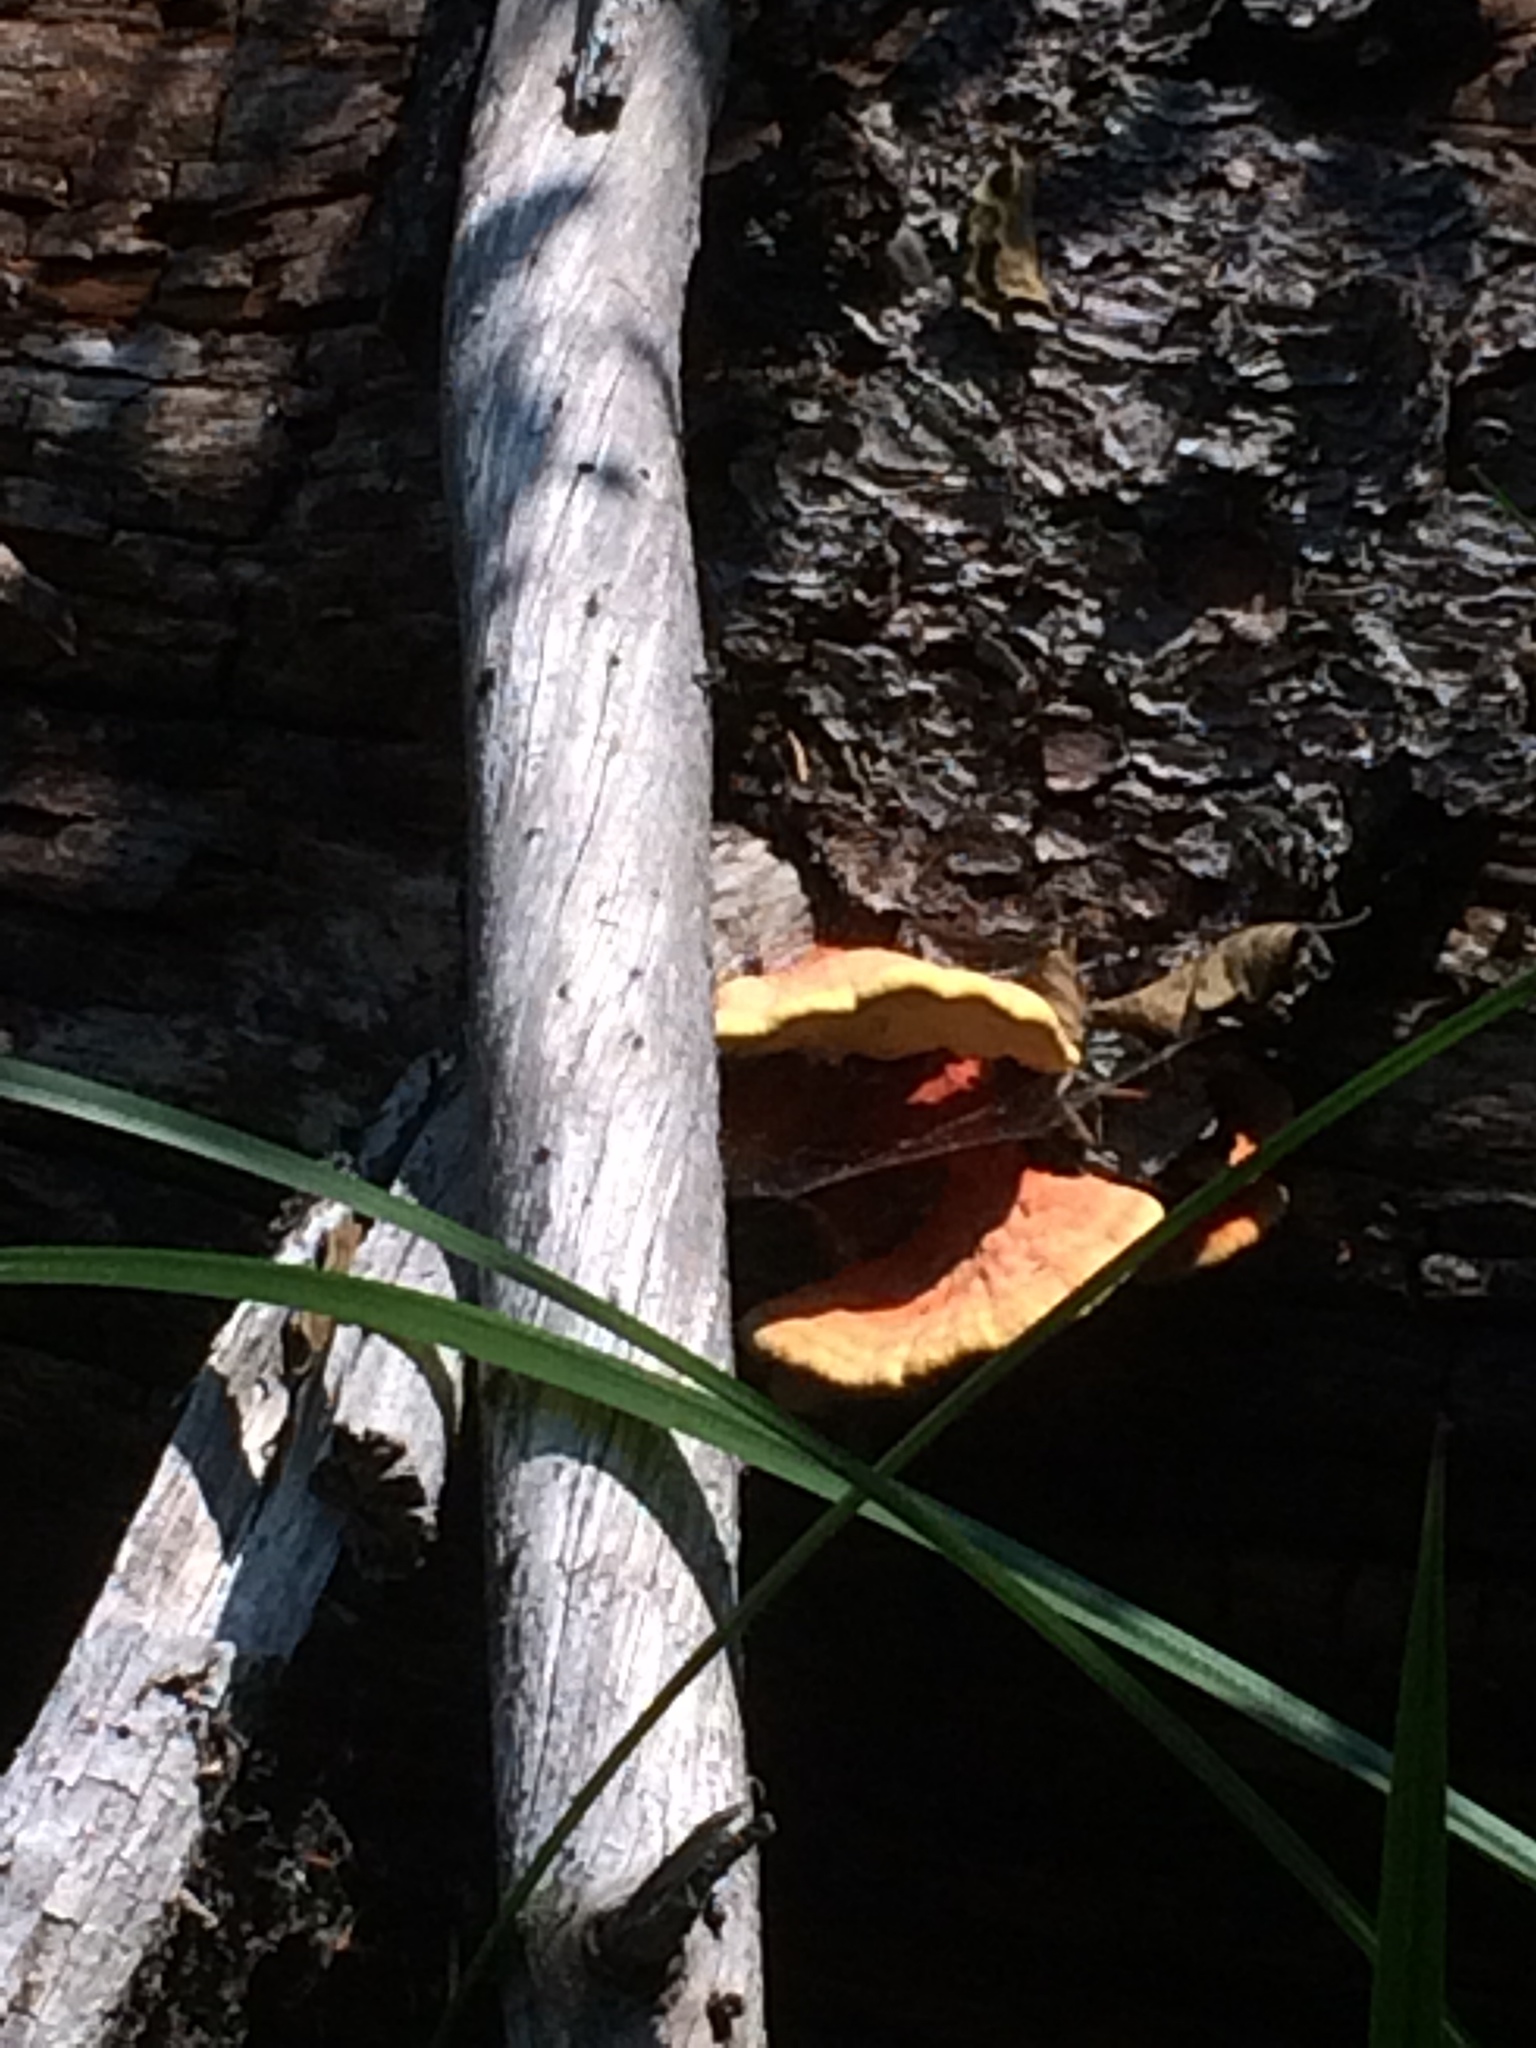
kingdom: Fungi
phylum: Basidiomycota
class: Agaricomycetes
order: Polyporales
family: Laetiporaceae
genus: Laetiporus
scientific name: Laetiporus conifericola
